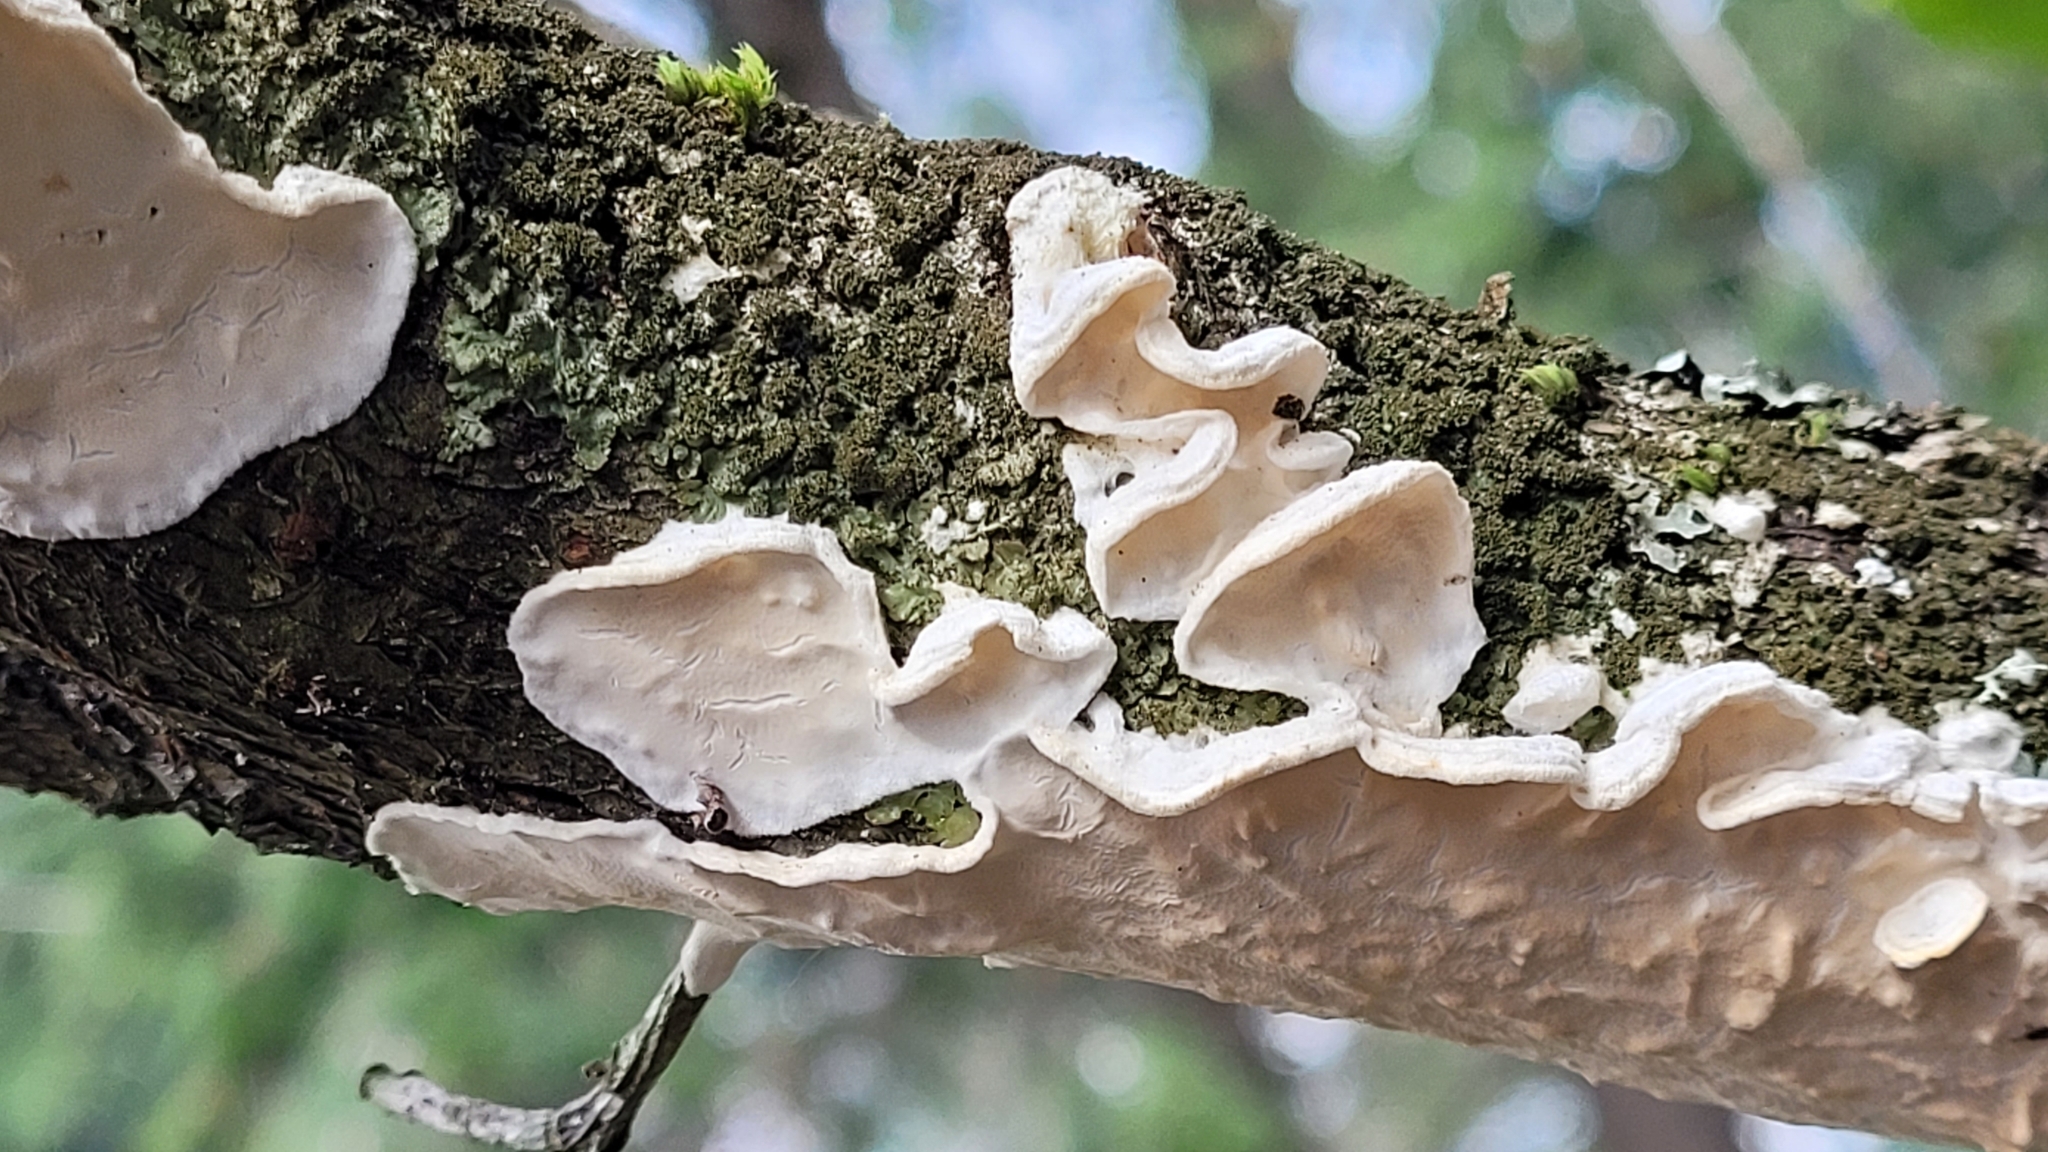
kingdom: Fungi
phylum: Basidiomycota
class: Agaricomycetes
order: Polyporales
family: Irpicaceae
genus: Byssomerulius
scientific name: Byssomerulius corium
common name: Netted crust
